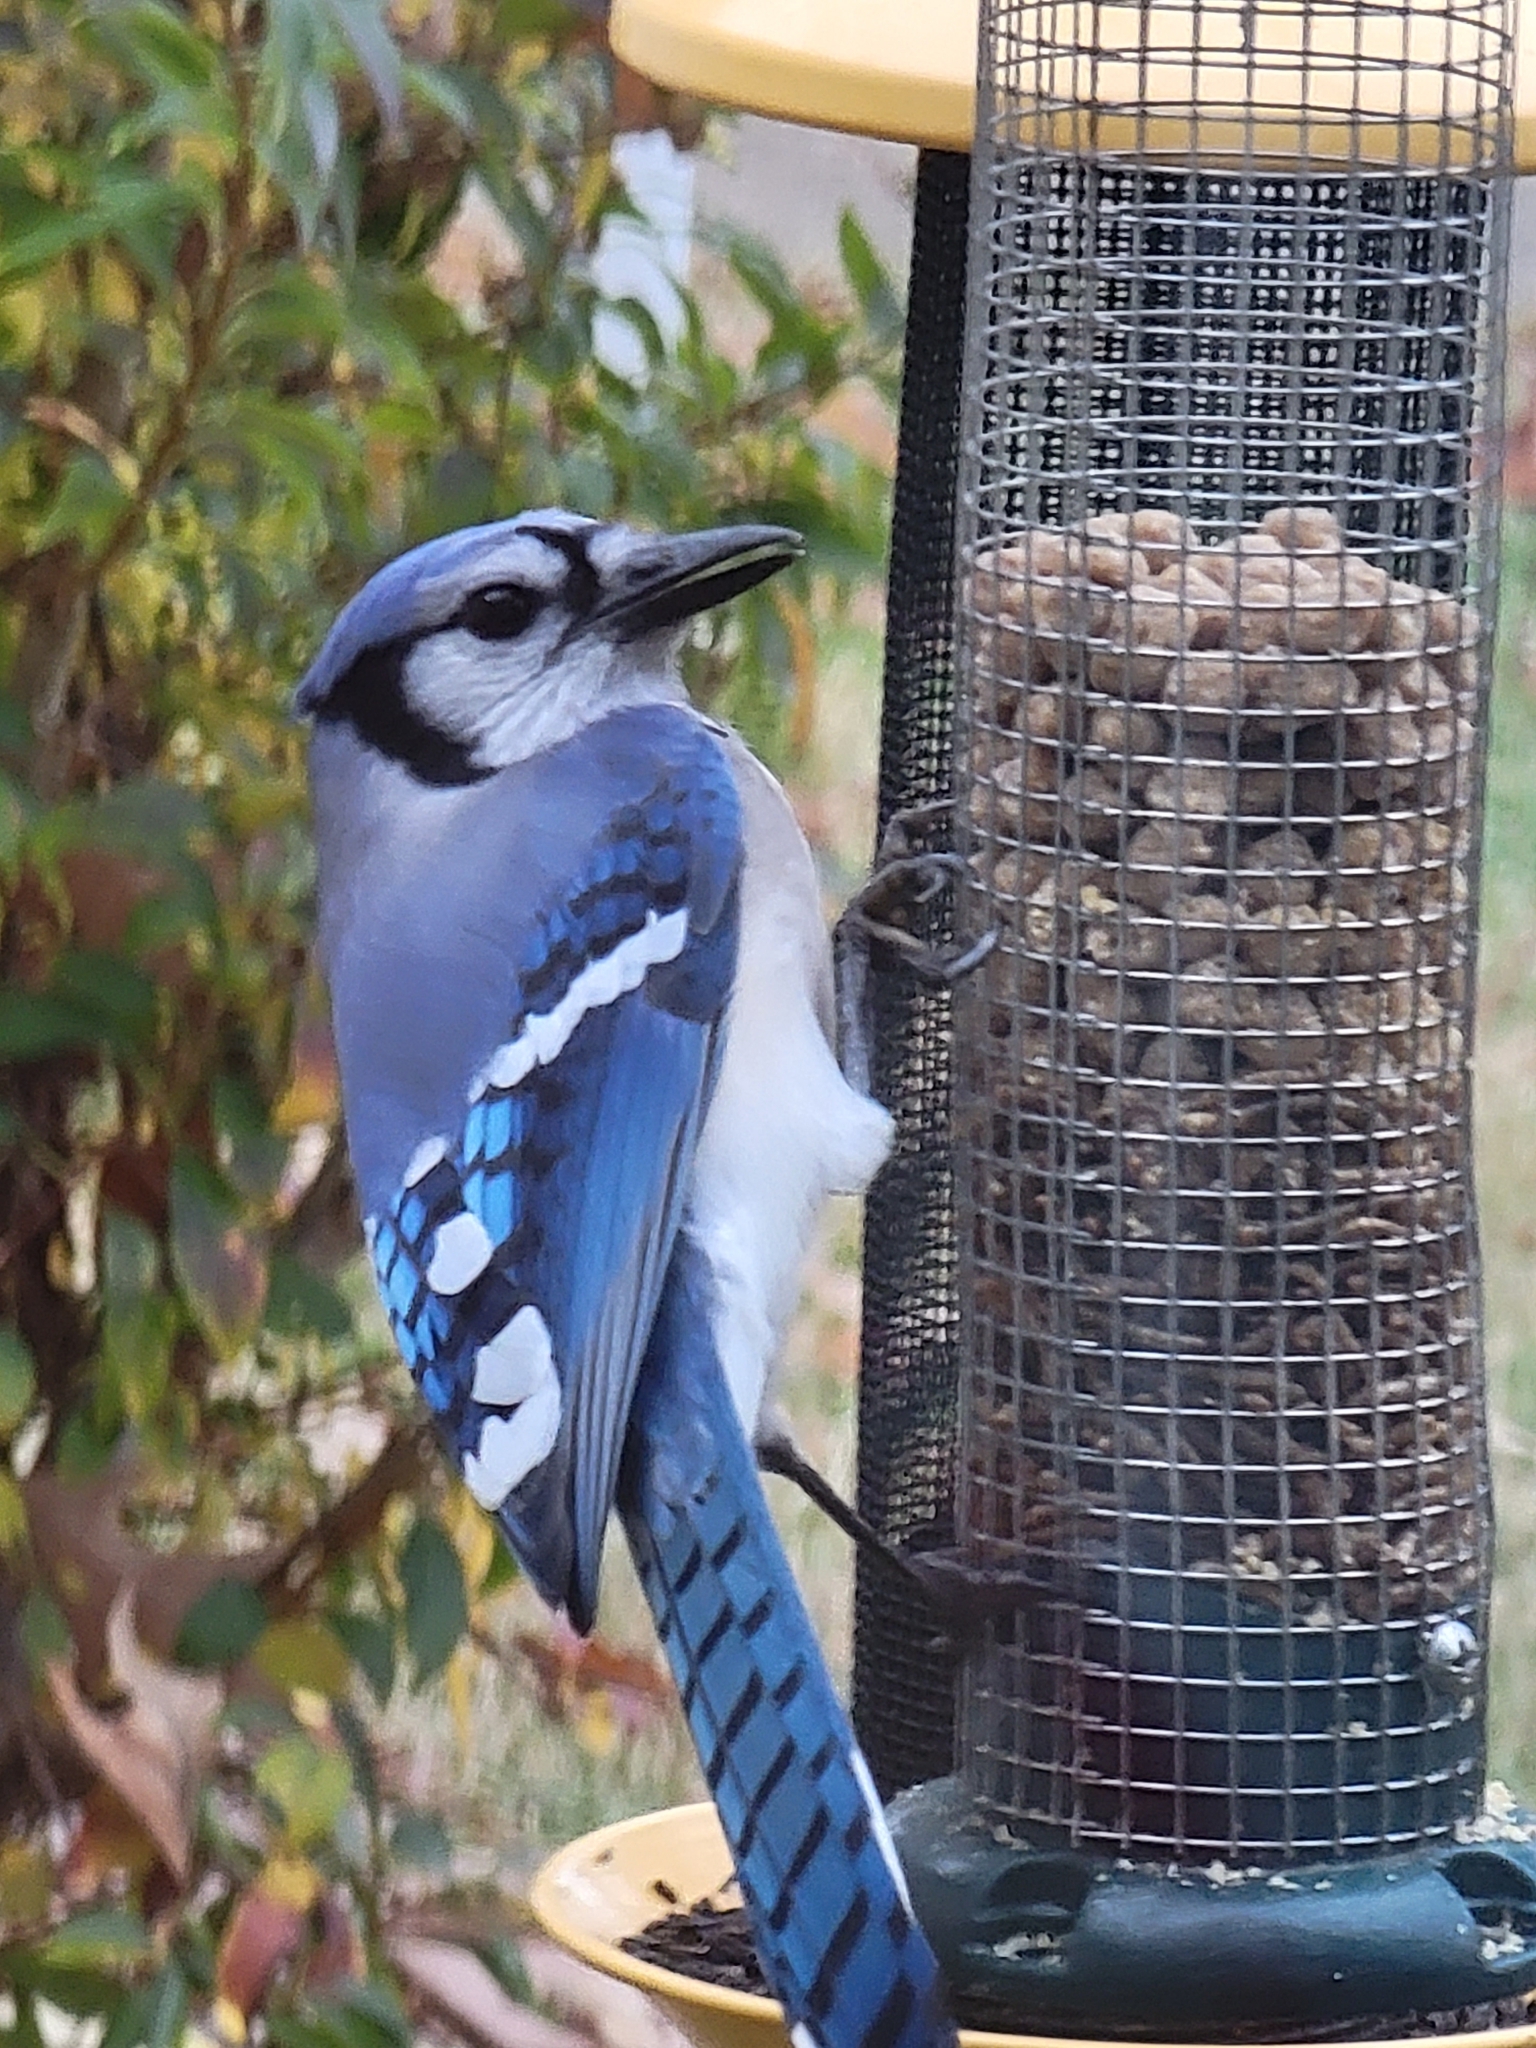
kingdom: Animalia
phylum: Chordata
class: Aves
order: Passeriformes
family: Corvidae
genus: Cyanocitta
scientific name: Cyanocitta cristata
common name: Blue jay
